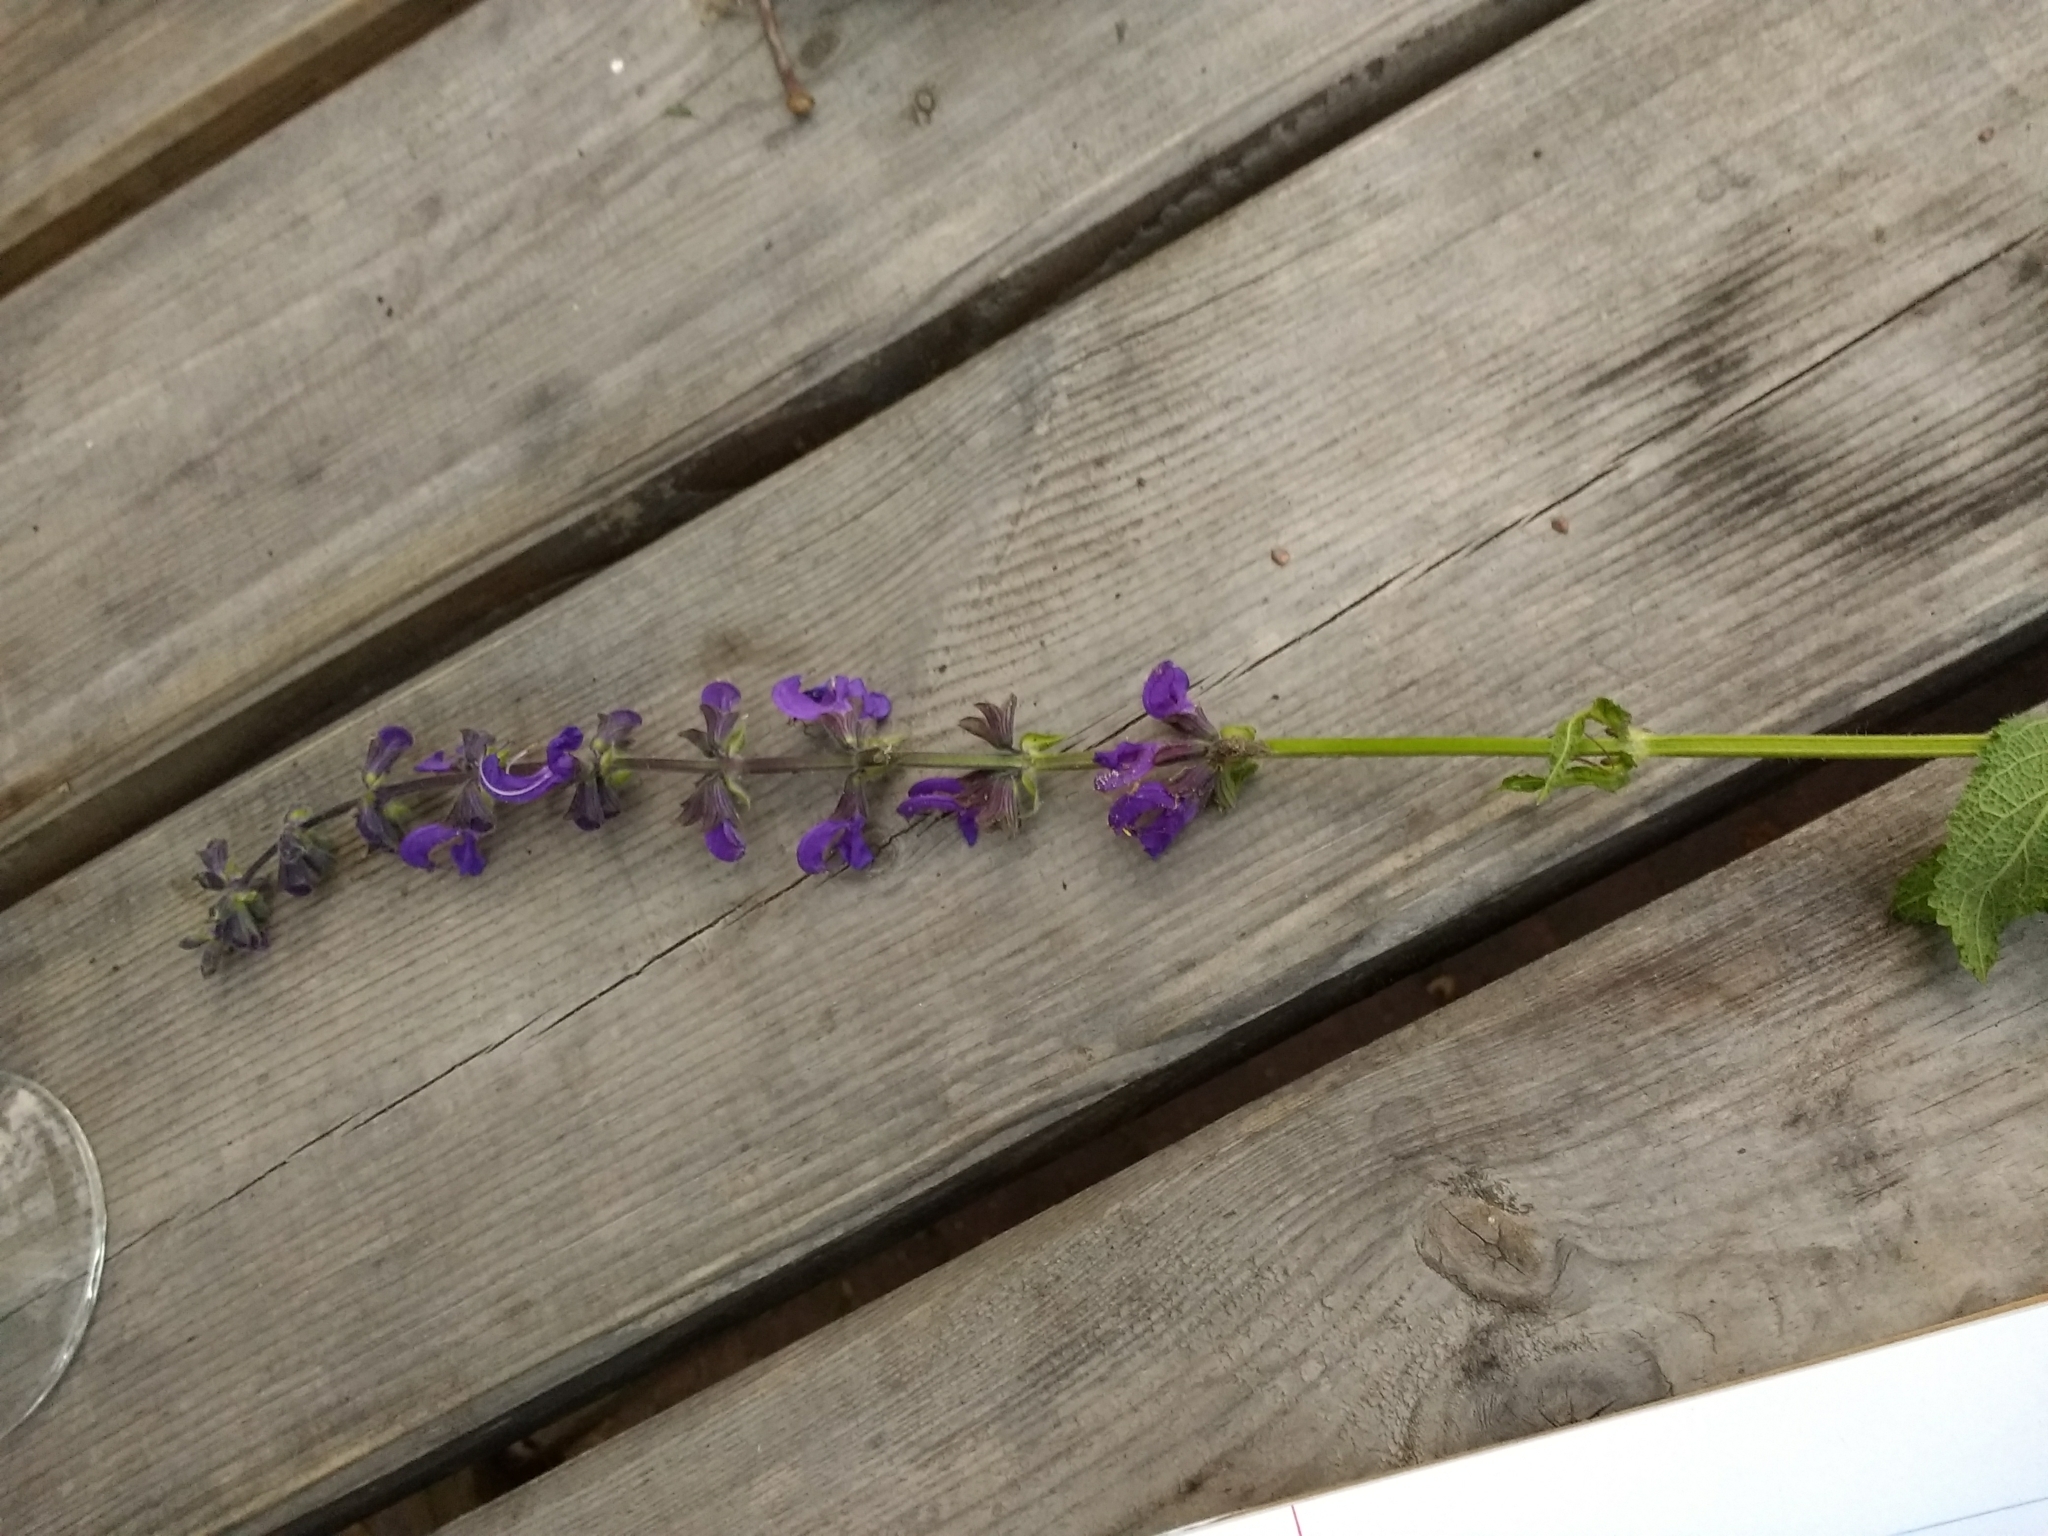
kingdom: Plantae
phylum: Tracheophyta
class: Magnoliopsida
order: Lamiales
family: Lamiaceae
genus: Salvia
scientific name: Salvia pratensis
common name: Meadow sage
